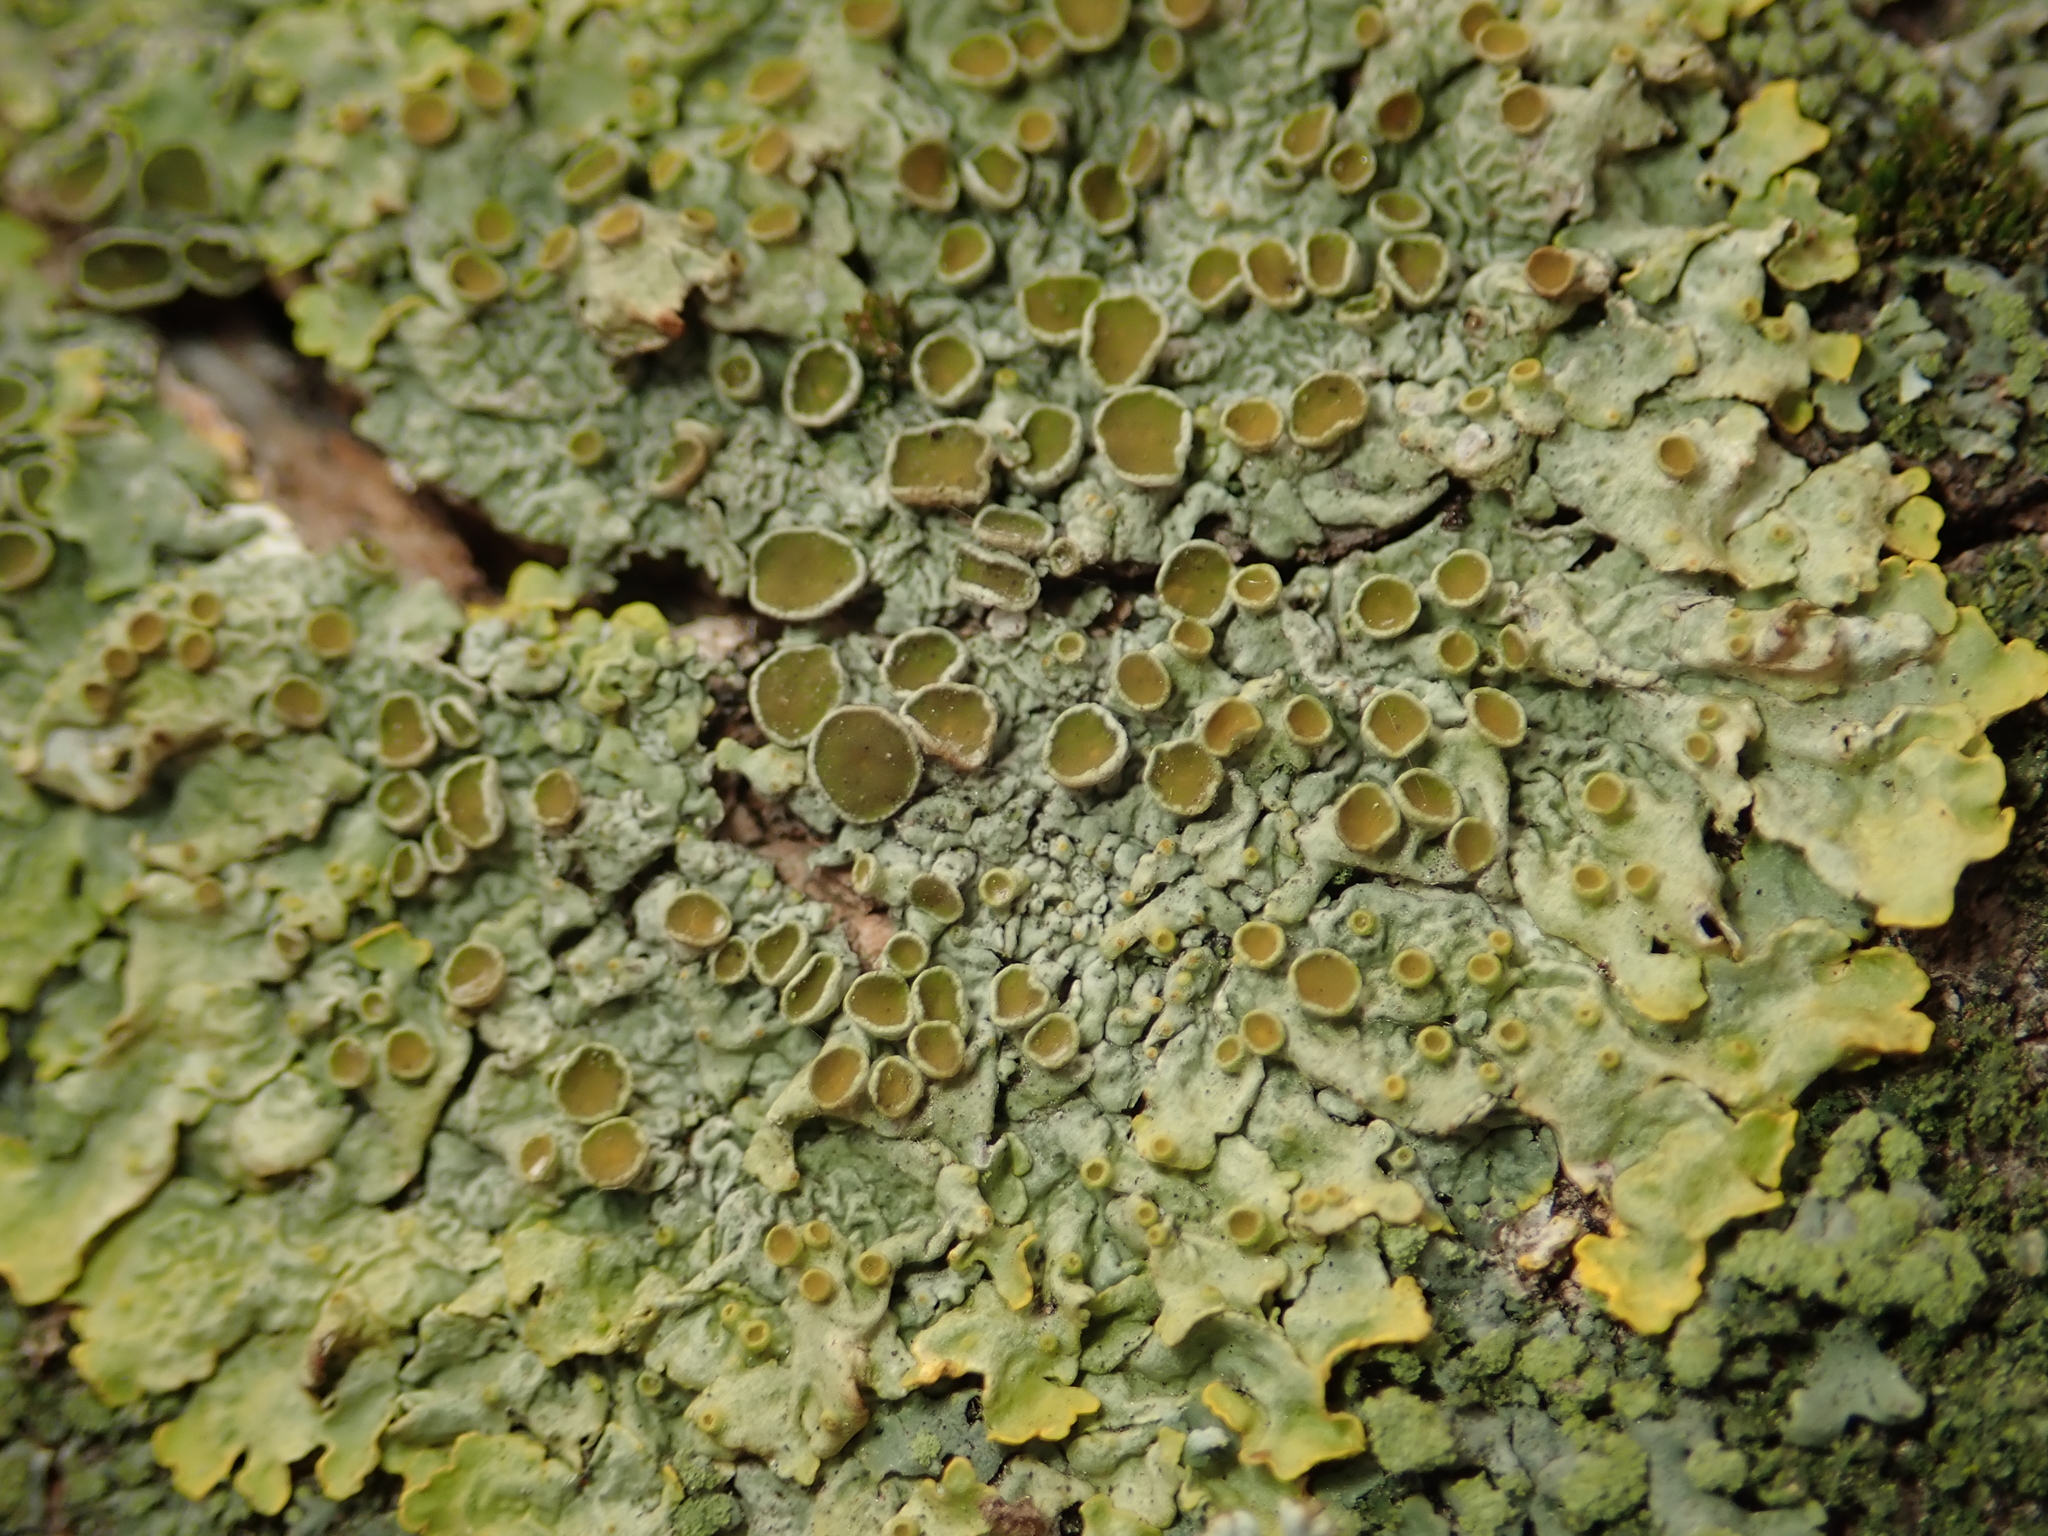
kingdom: Fungi
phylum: Ascomycota
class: Lecanoromycetes
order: Teloschistales
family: Teloschistaceae
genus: Xanthoria
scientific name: Xanthoria parietina
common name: Common orange lichen
